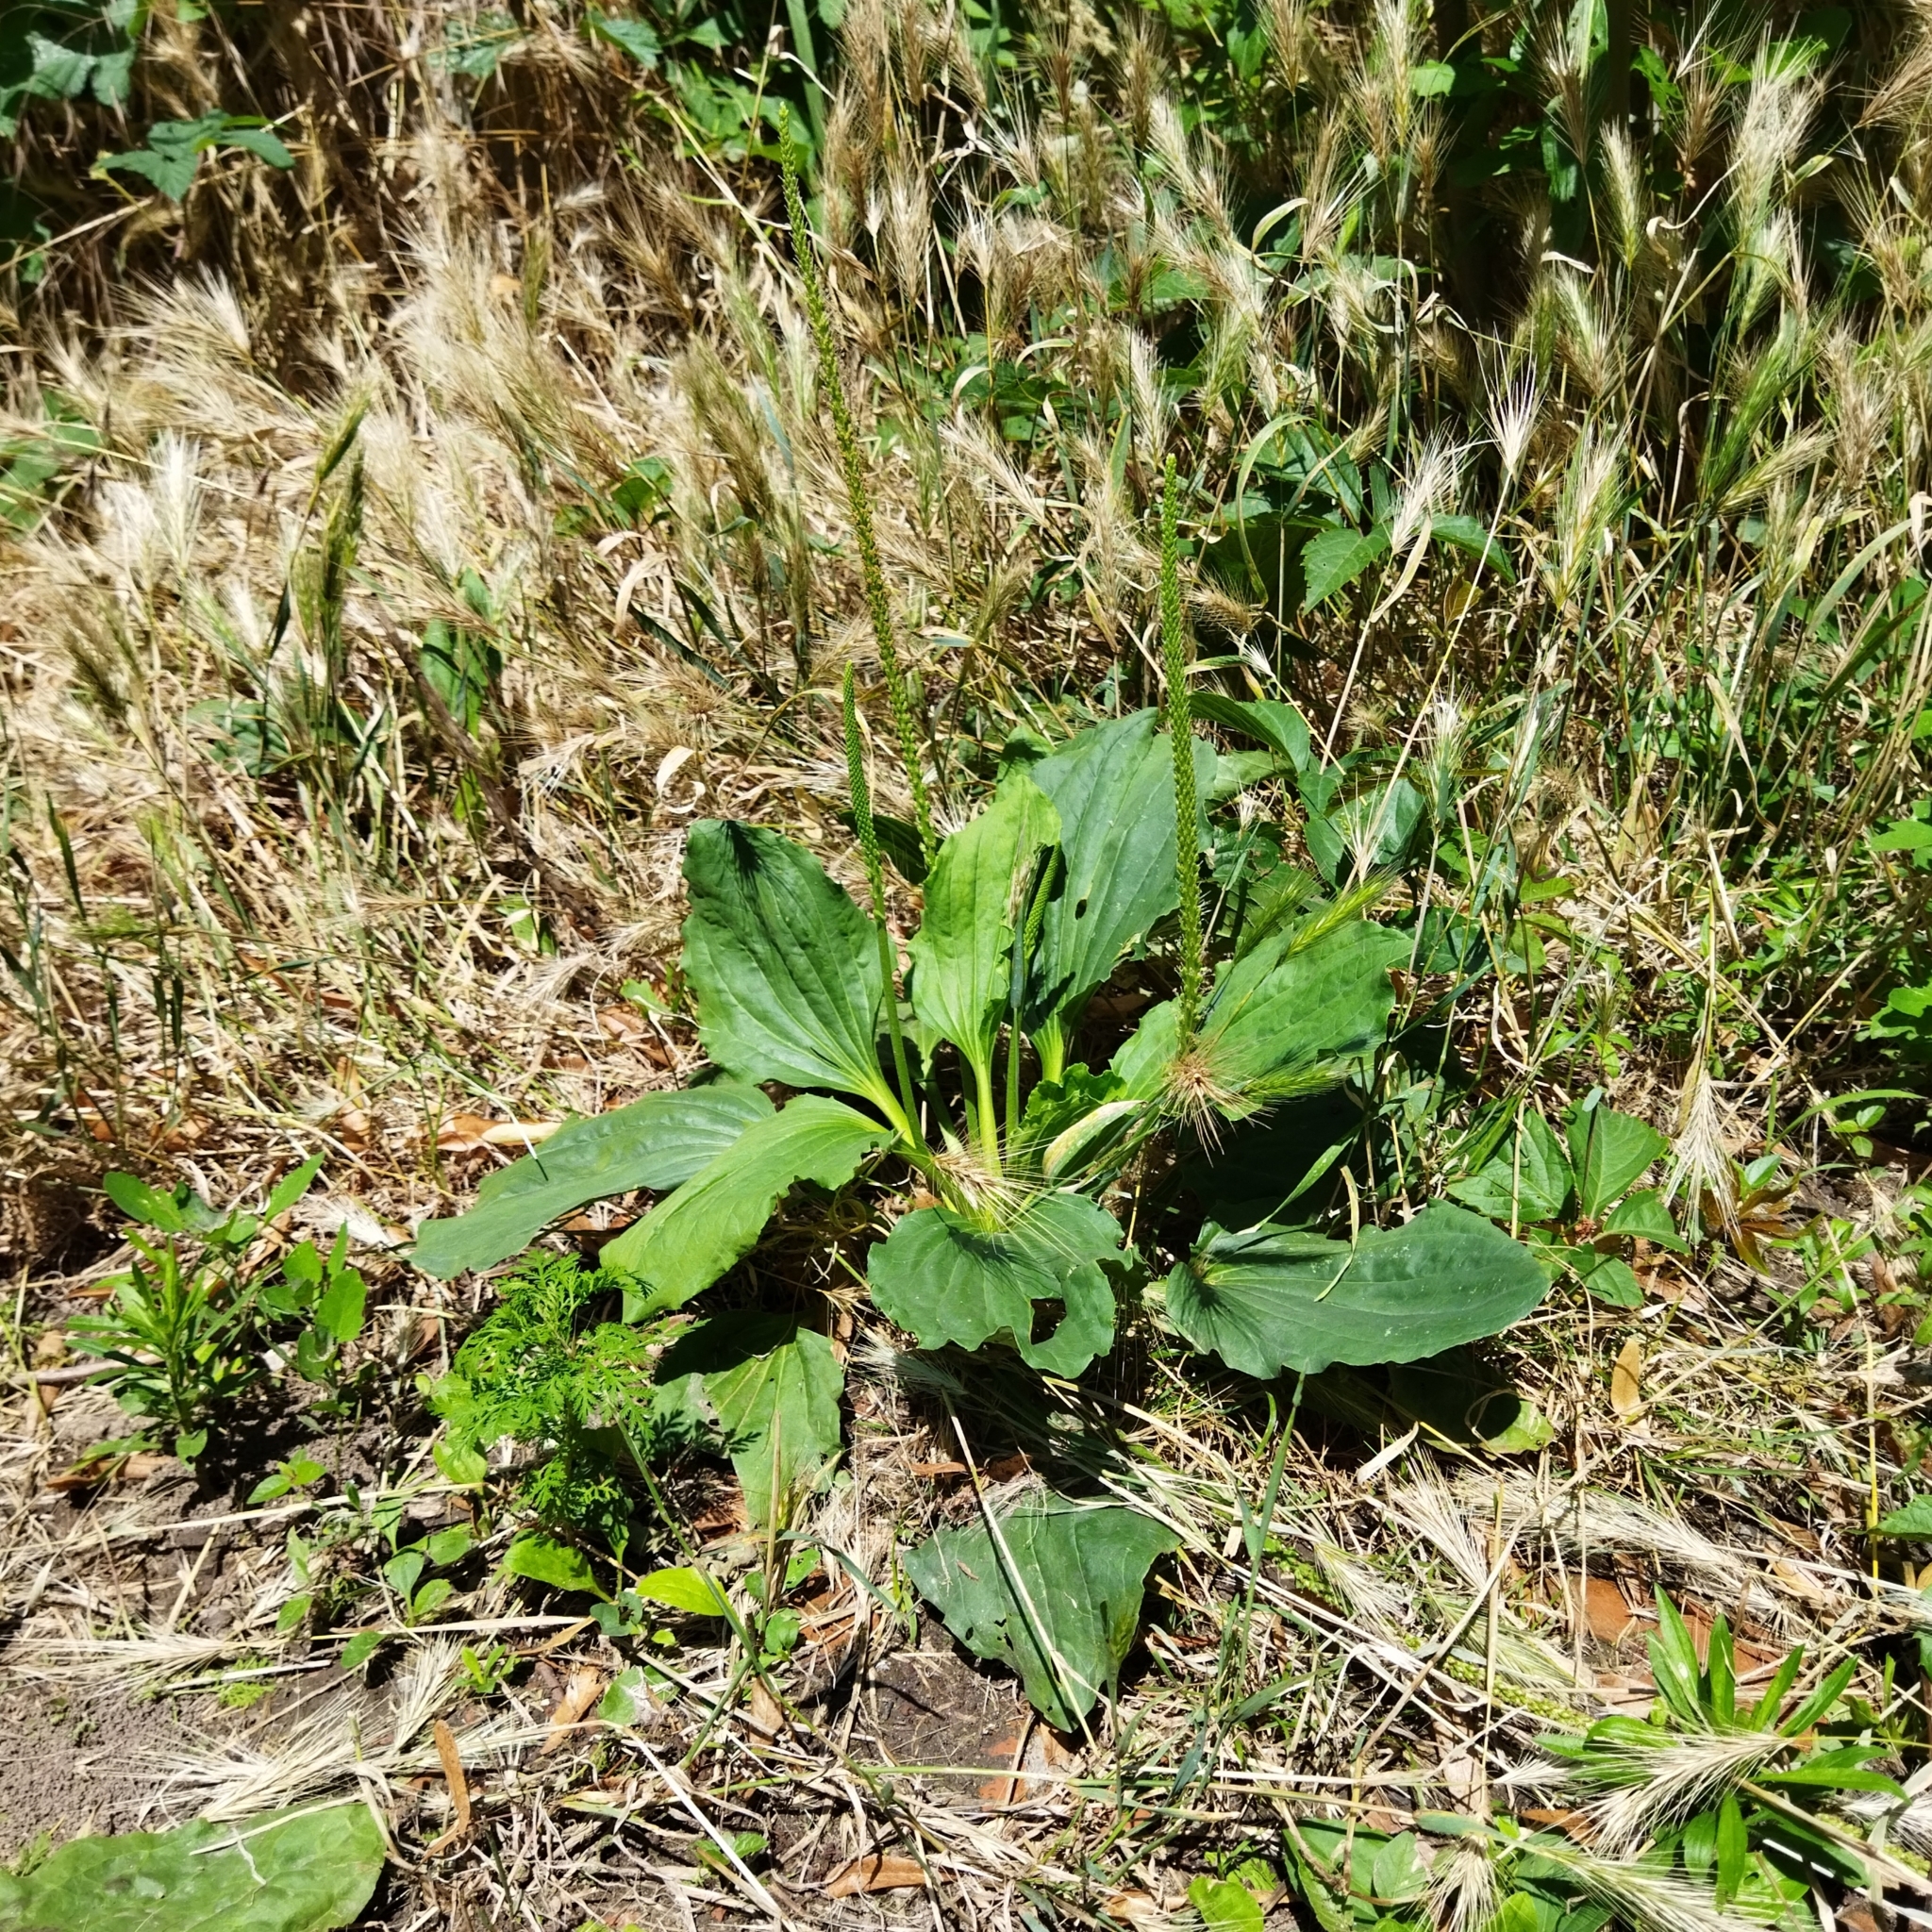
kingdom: Plantae
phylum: Tracheophyta
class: Magnoliopsida
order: Lamiales
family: Plantaginaceae
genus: Plantago
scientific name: Plantago major
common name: Common plantain
